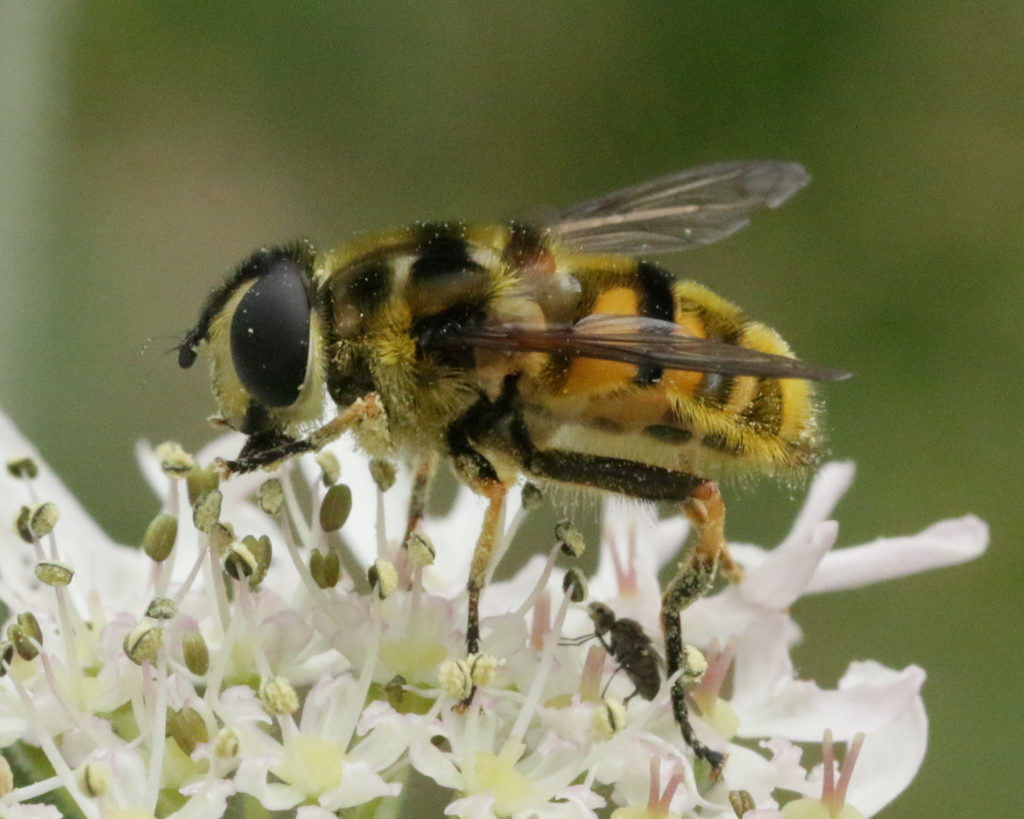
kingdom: Animalia
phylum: Arthropoda
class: Insecta
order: Diptera
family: Syrphidae
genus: Myathropa
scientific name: Myathropa florea
